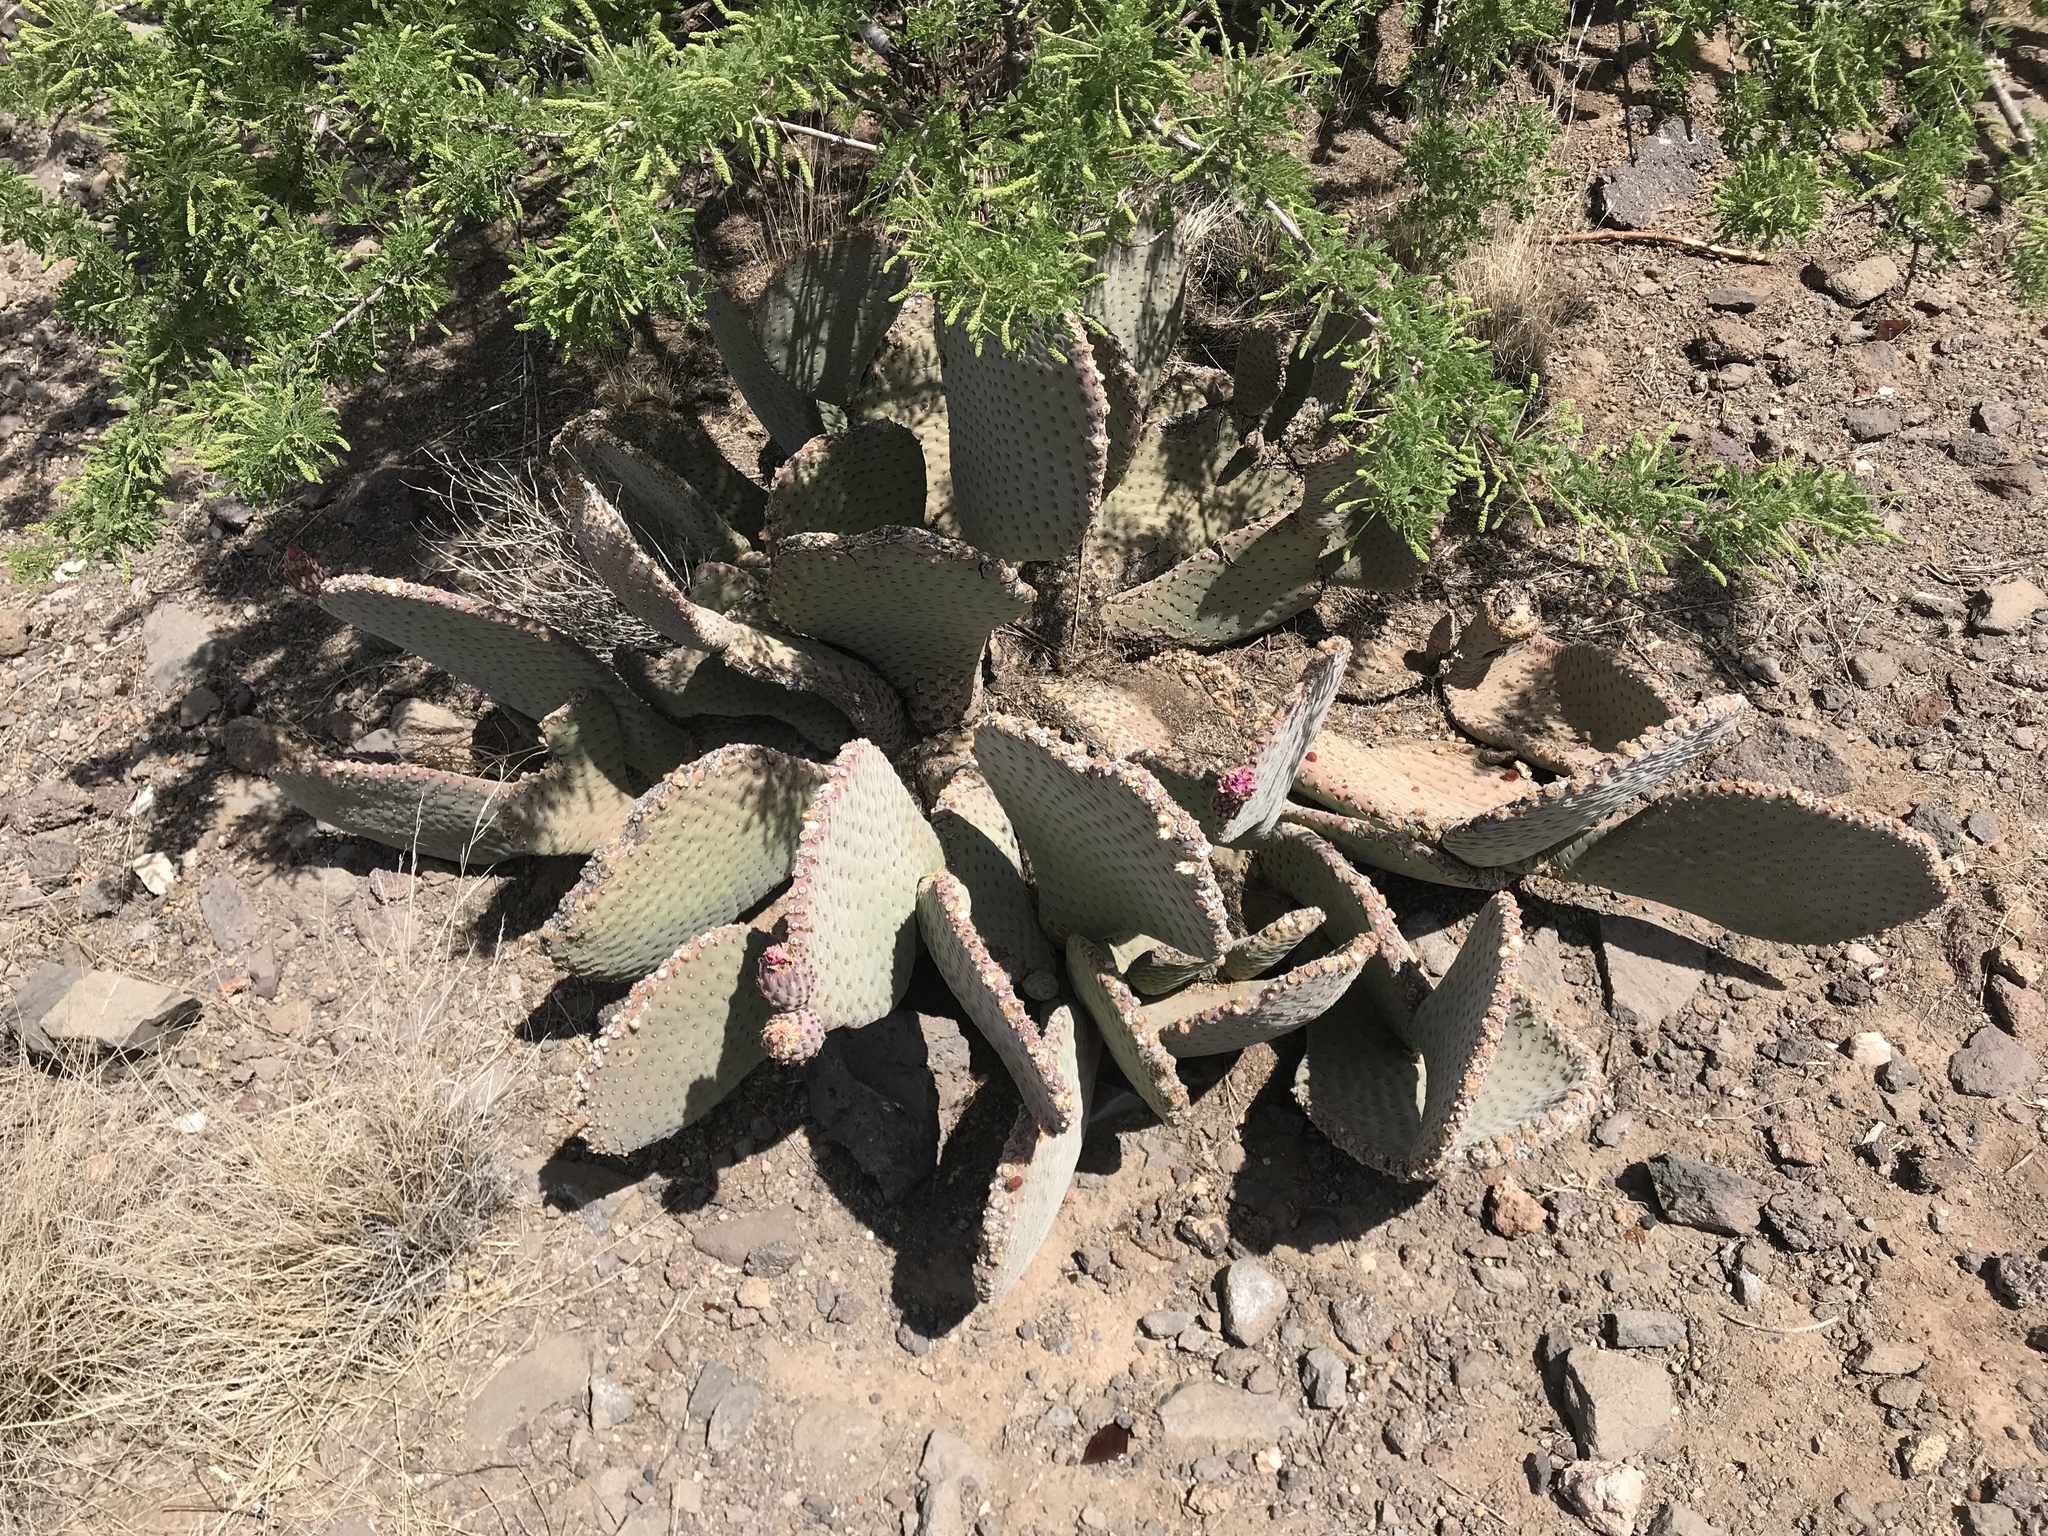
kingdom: Plantae
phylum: Tracheophyta
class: Magnoliopsida
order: Caryophyllales
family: Cactaceae
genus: Opuntia
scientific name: Opuntia basilaris
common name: Beavertail prickly-pear
